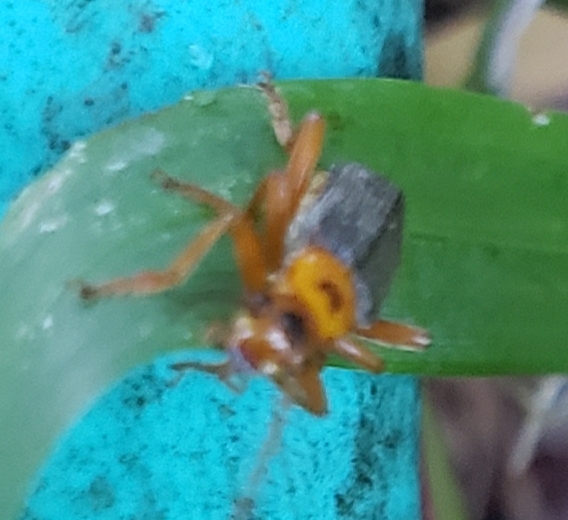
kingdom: Animalia
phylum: Arthropoda
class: Insecta
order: Coleoptera
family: Cantharidae
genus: Cultellunguis
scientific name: Cultellunguis americanus
